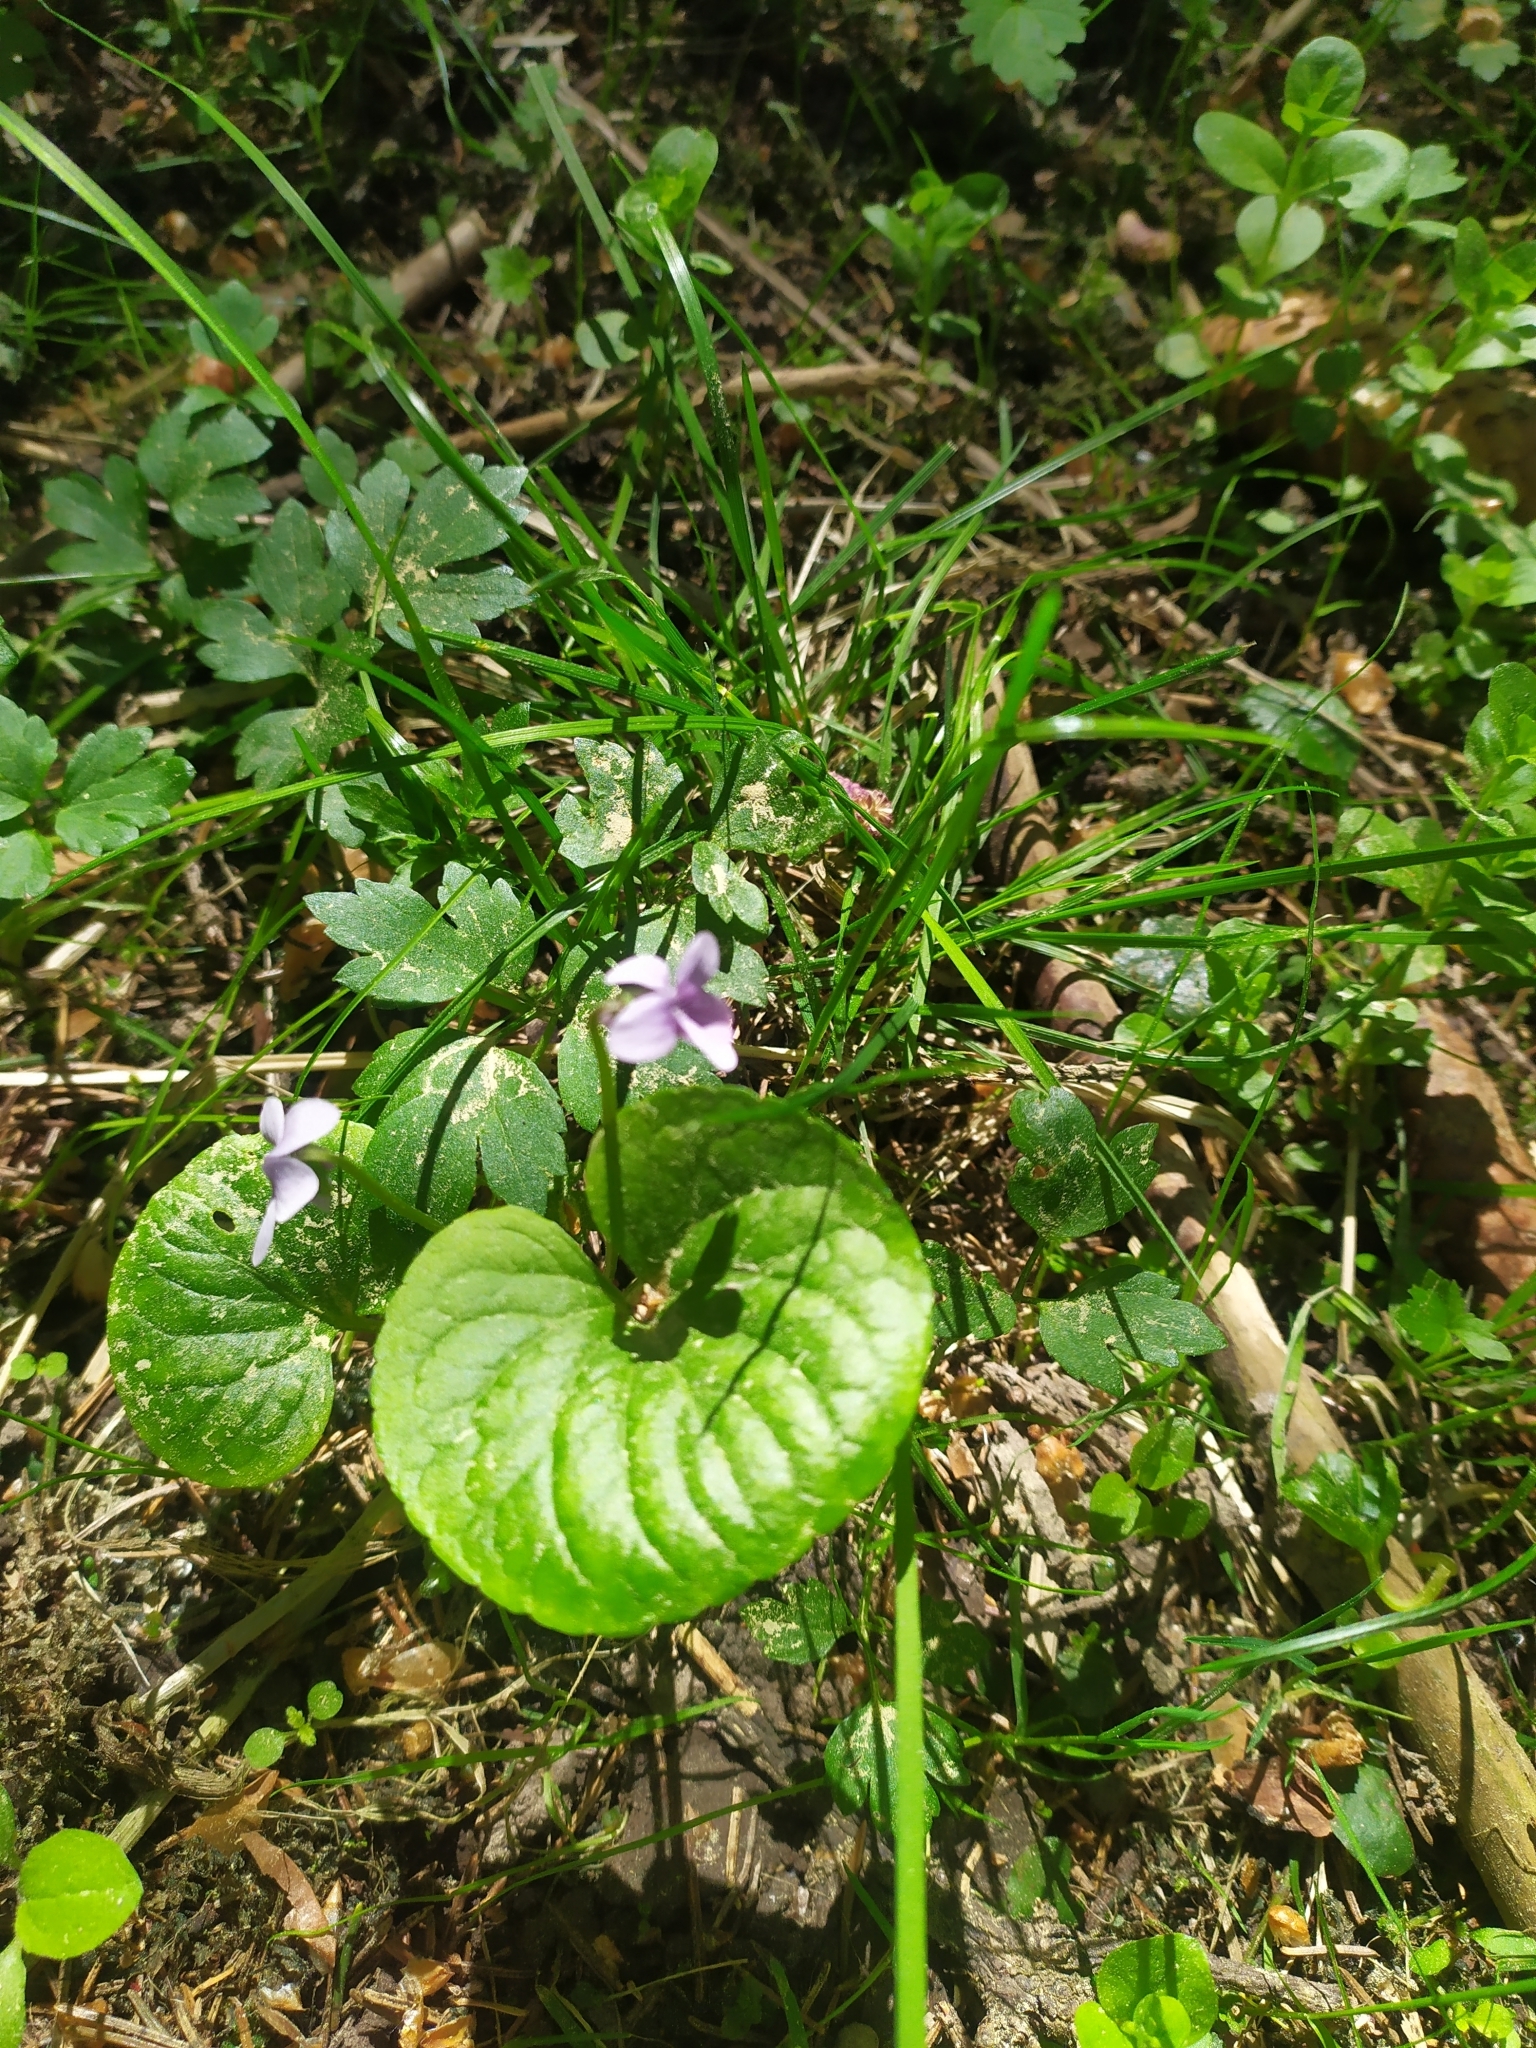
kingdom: Plantae
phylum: Tracheophyta
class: Magnoliopsida
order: Malpighiales
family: Violaceae
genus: Viola
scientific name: Viola palustris
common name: Marsh violet
